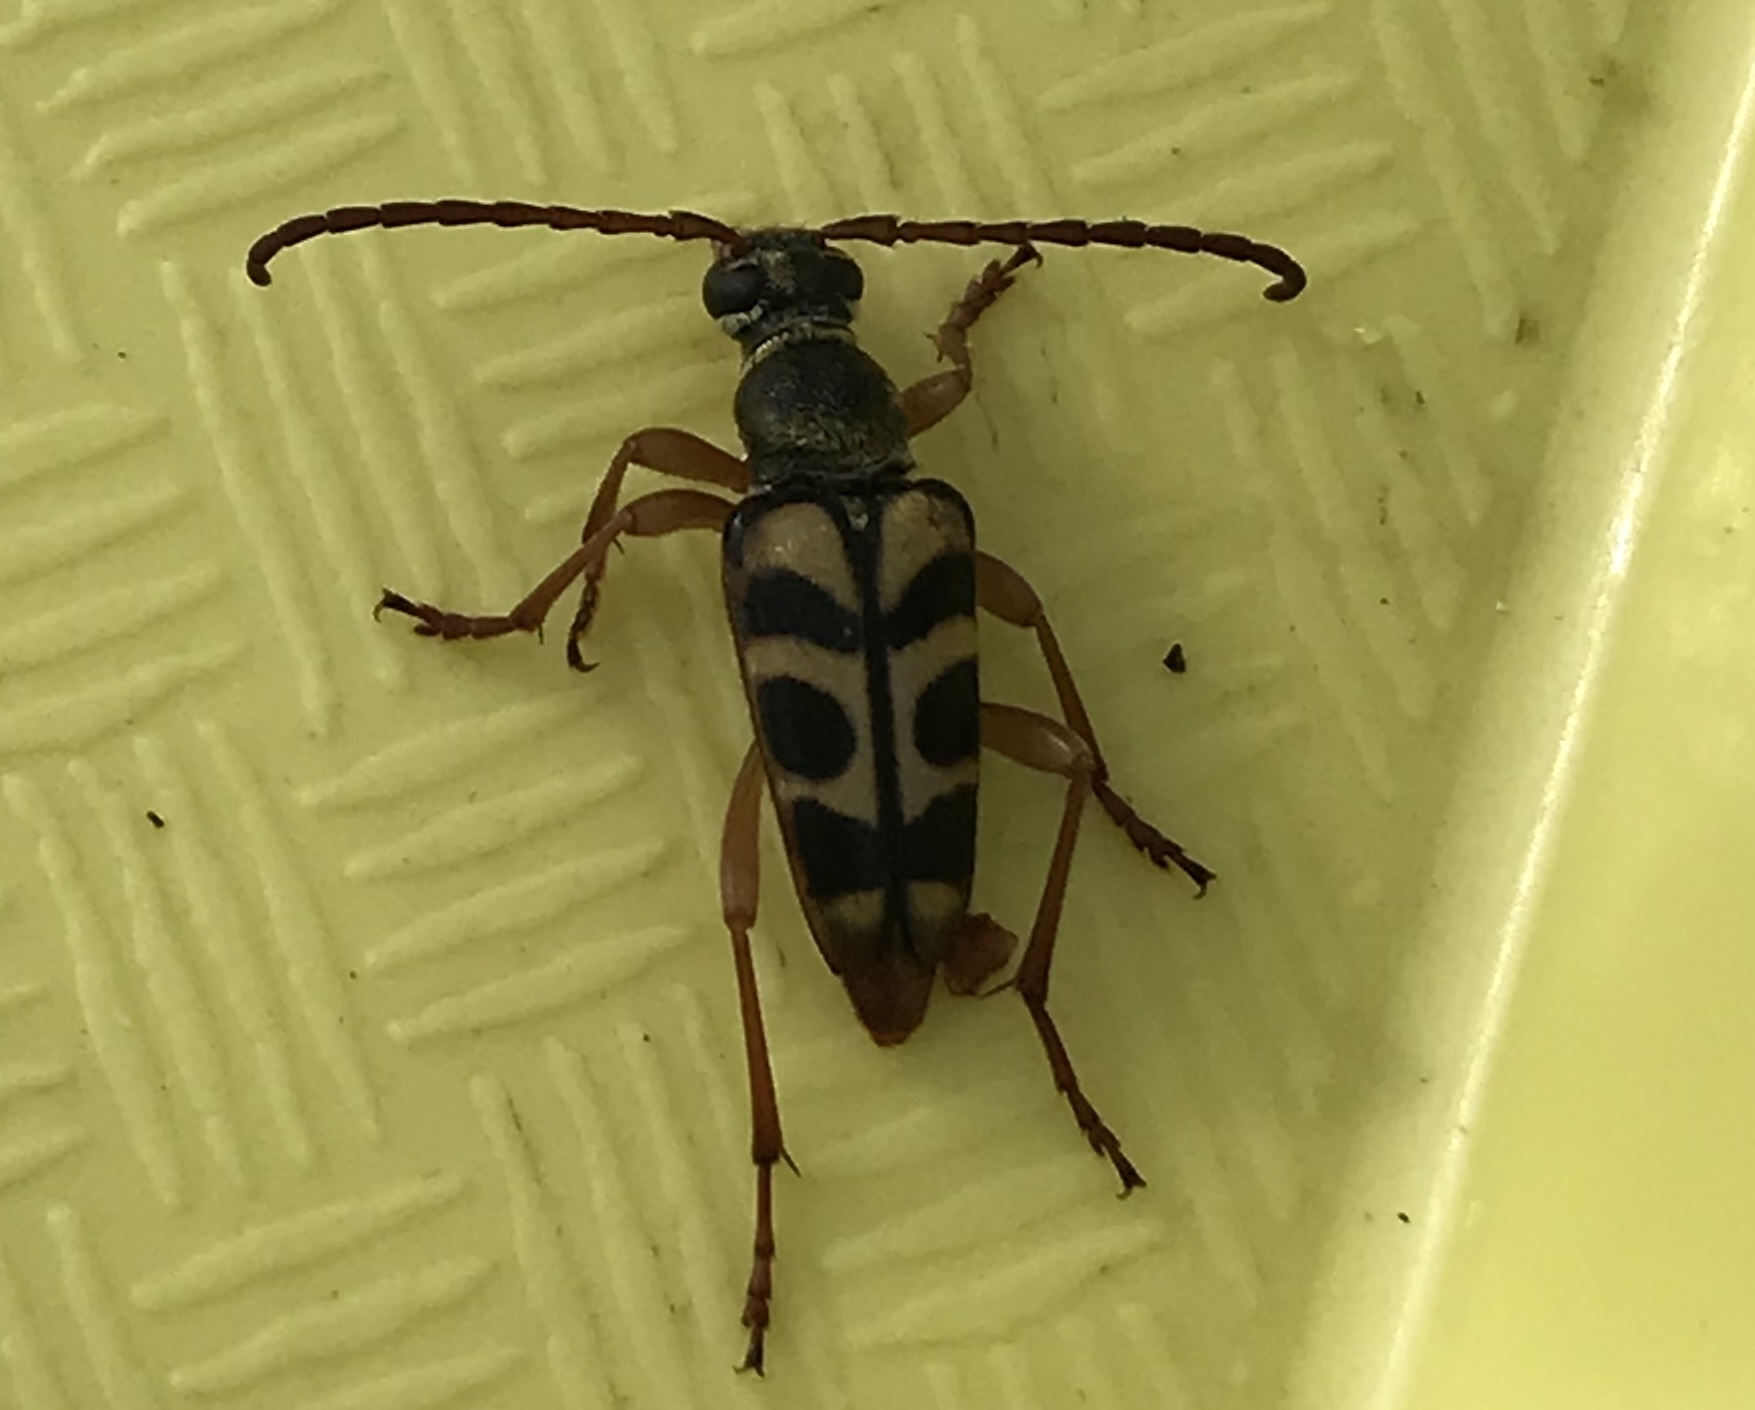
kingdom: Animalia
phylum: Arthropoda
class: Insecta
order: Coleoptera
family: Cerambycidae
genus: Strophiona
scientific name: Strophiona tigrina
